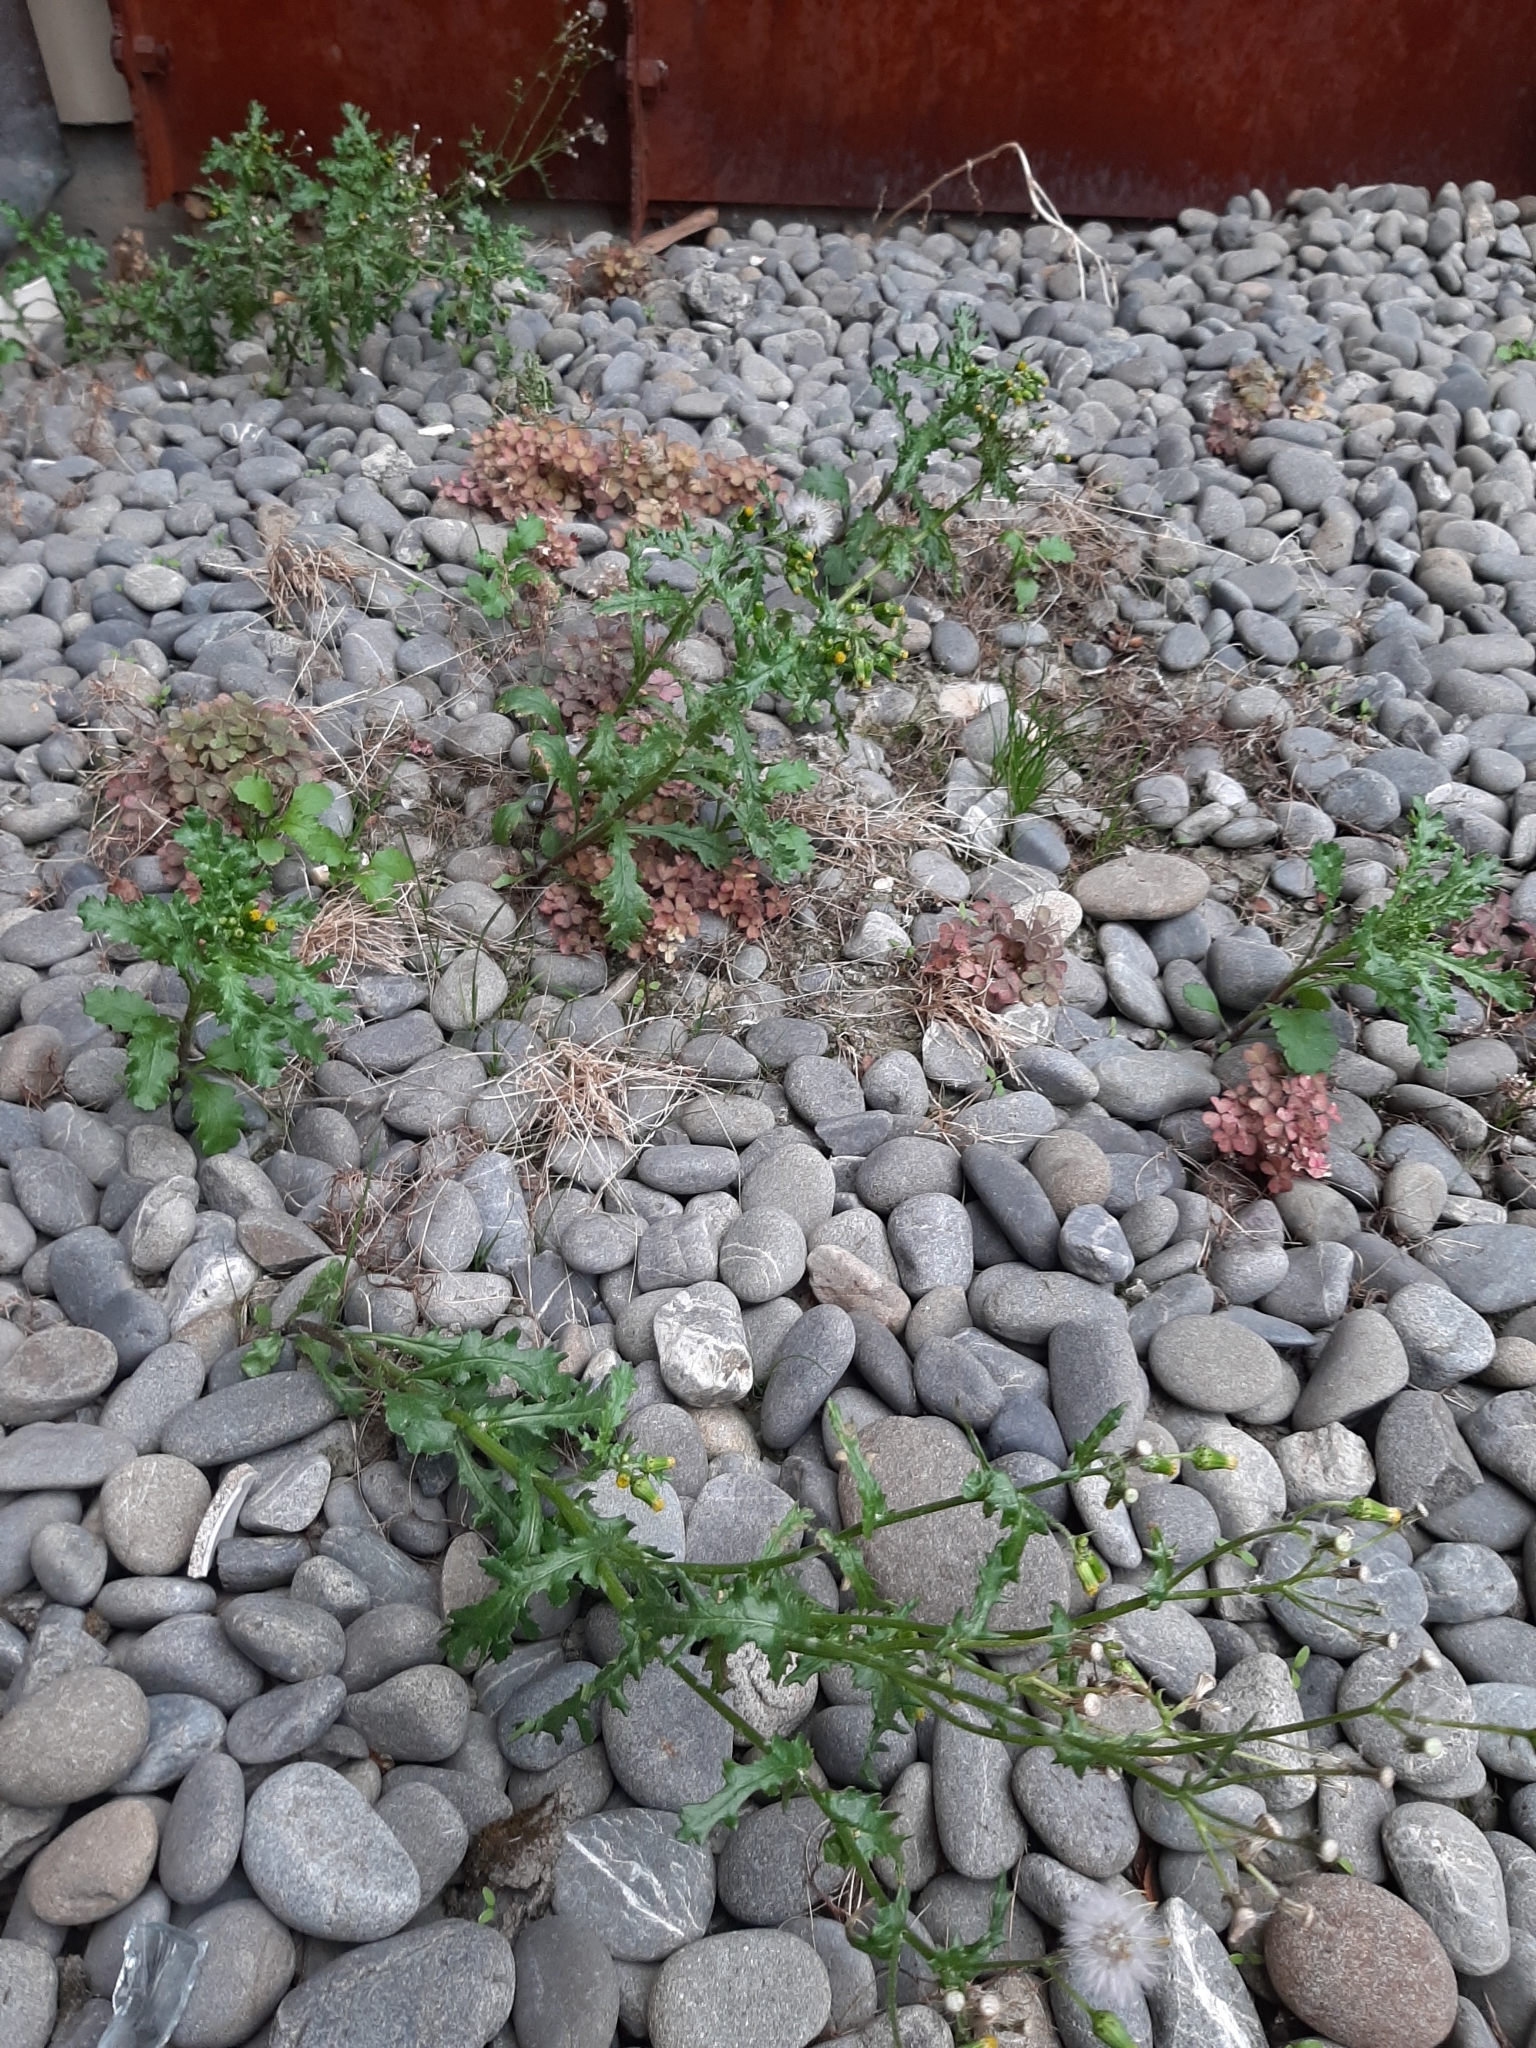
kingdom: Plantae
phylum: Tracheophyta
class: Magnoliopsida
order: Asterales
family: Asteraceae
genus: Senecio
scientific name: Senecio vulgaris
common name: Old-man-in-the-spring
